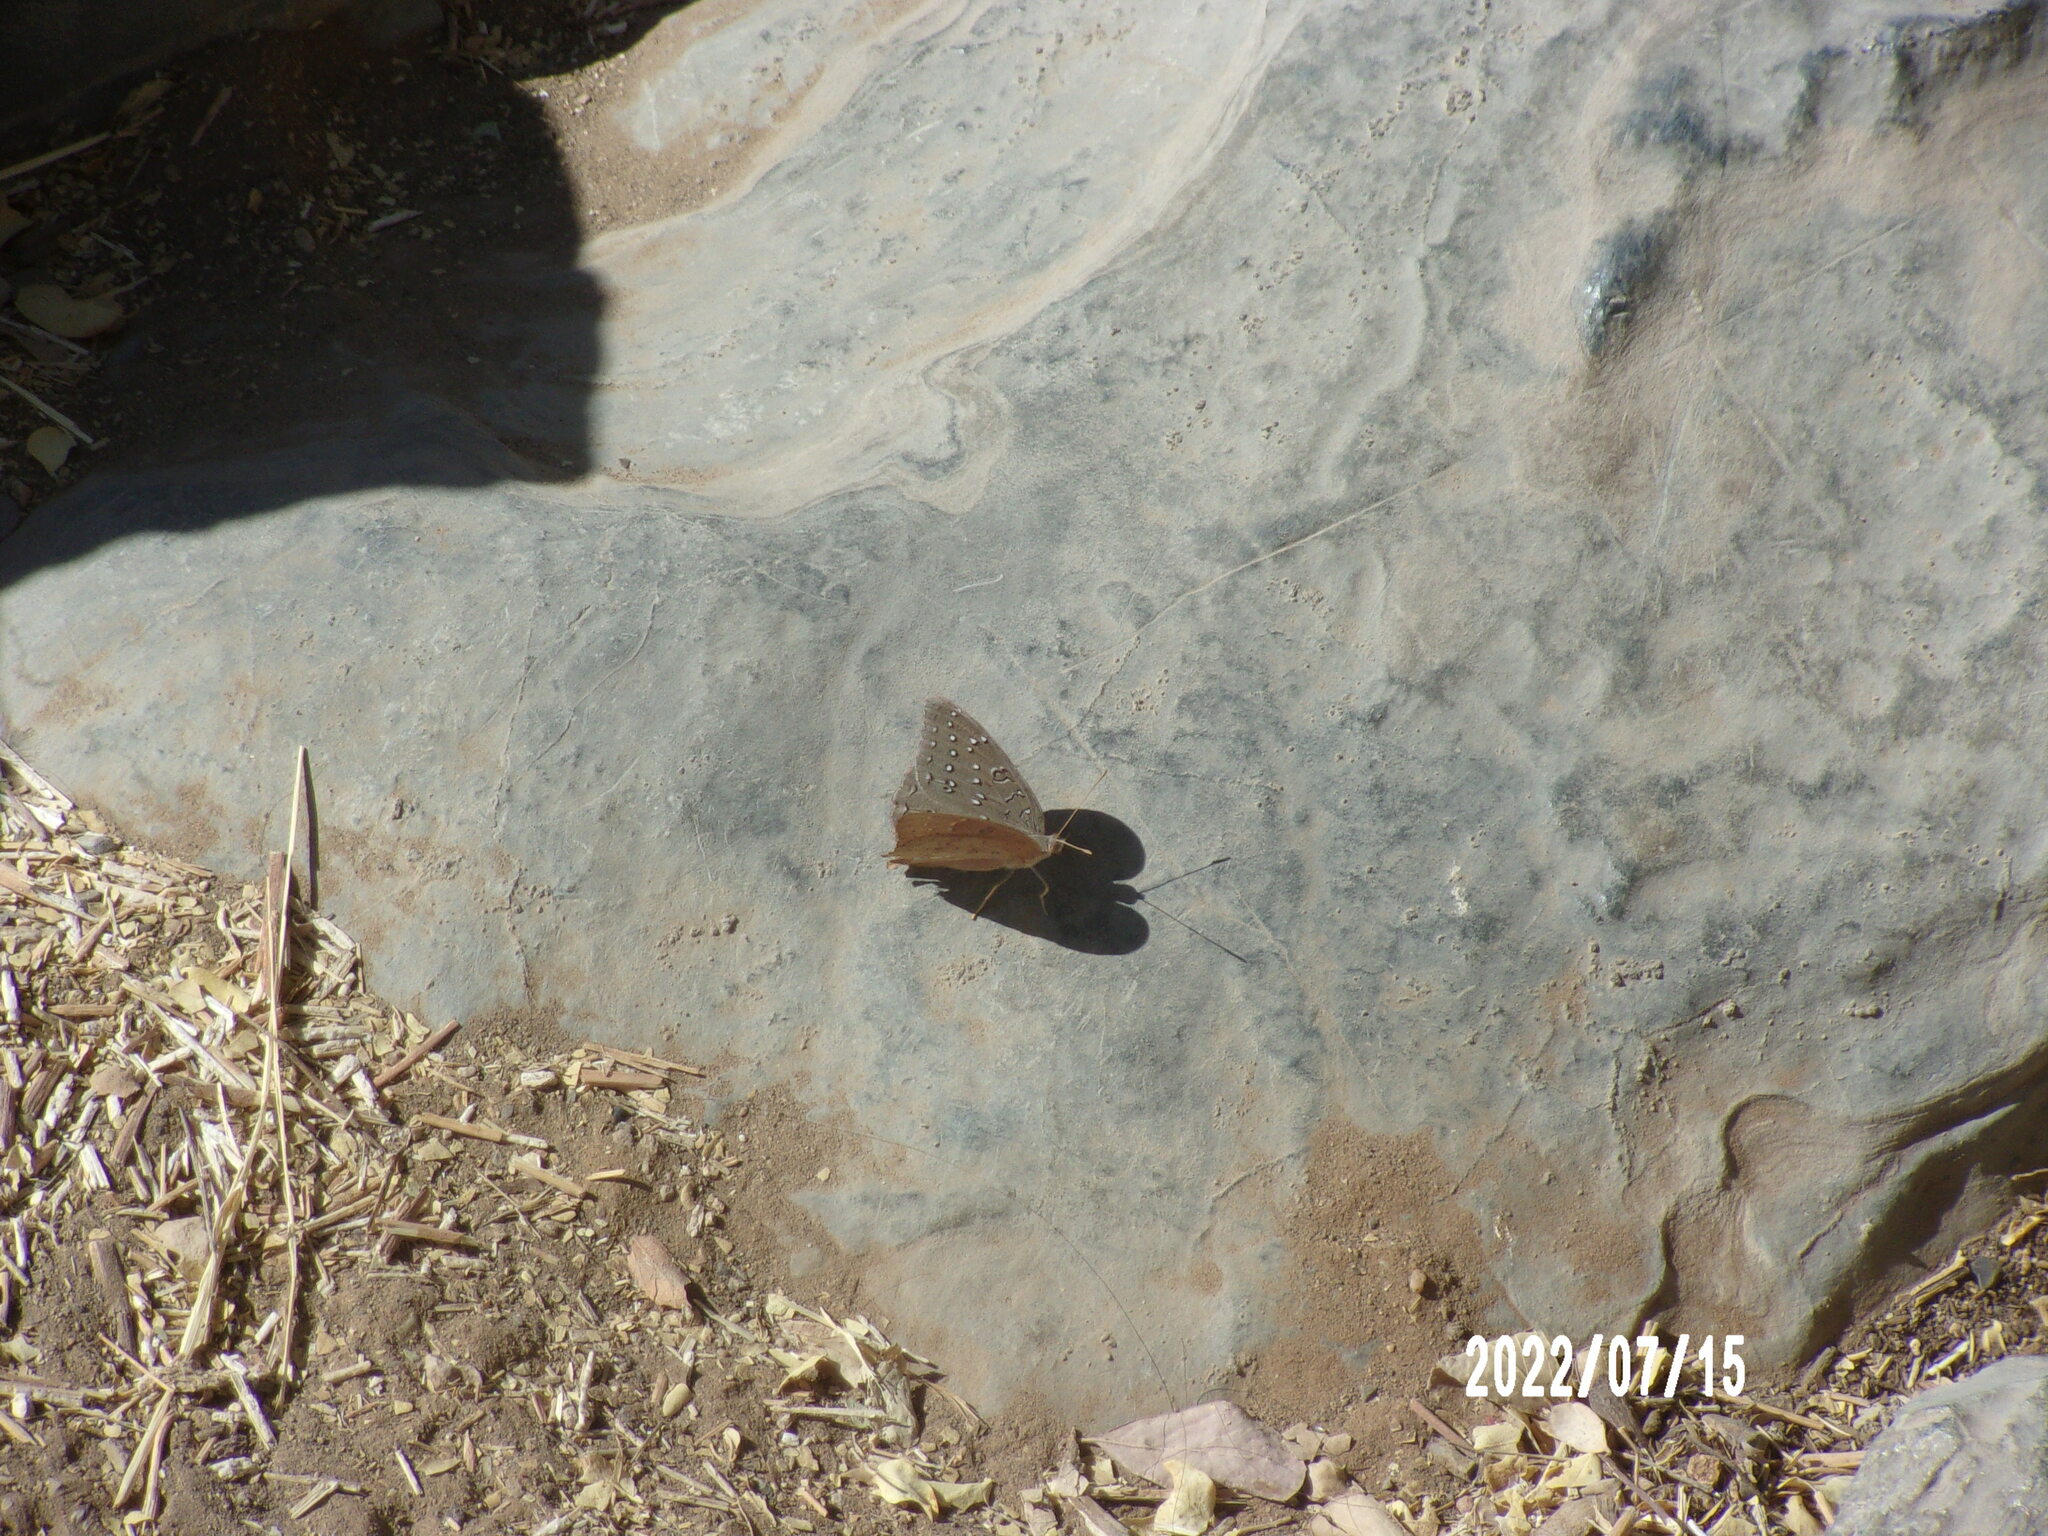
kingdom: Animalia
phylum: Arthropoda
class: Insecta
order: Lepidoptera
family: Nymphalidae
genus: Hamanumida
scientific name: Hamanumida daedalus
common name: Guinea-fowl butterfly
